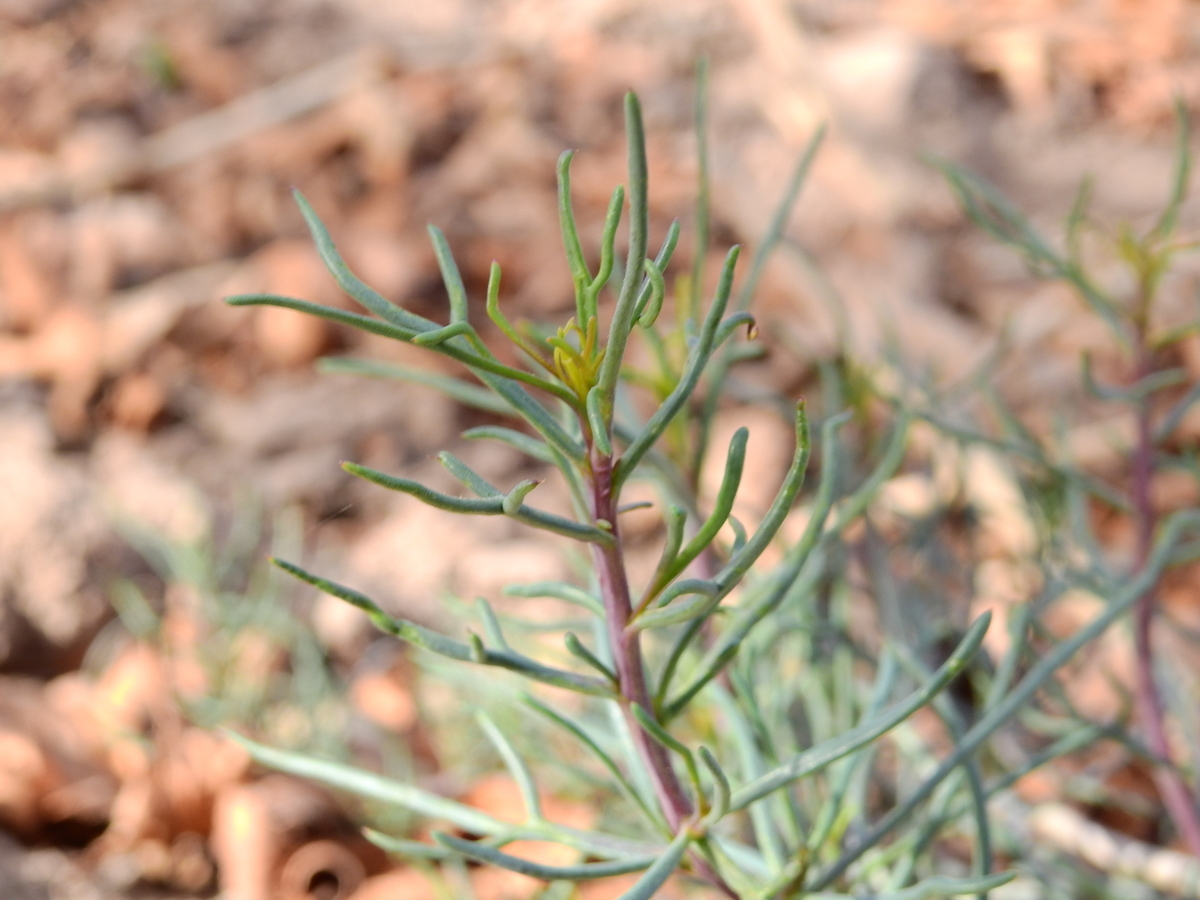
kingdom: Plantae
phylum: Tracheophyta
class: Magnoliopsida
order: Asterales
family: Asteraceae
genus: Senecio
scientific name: Senecio subulatus
